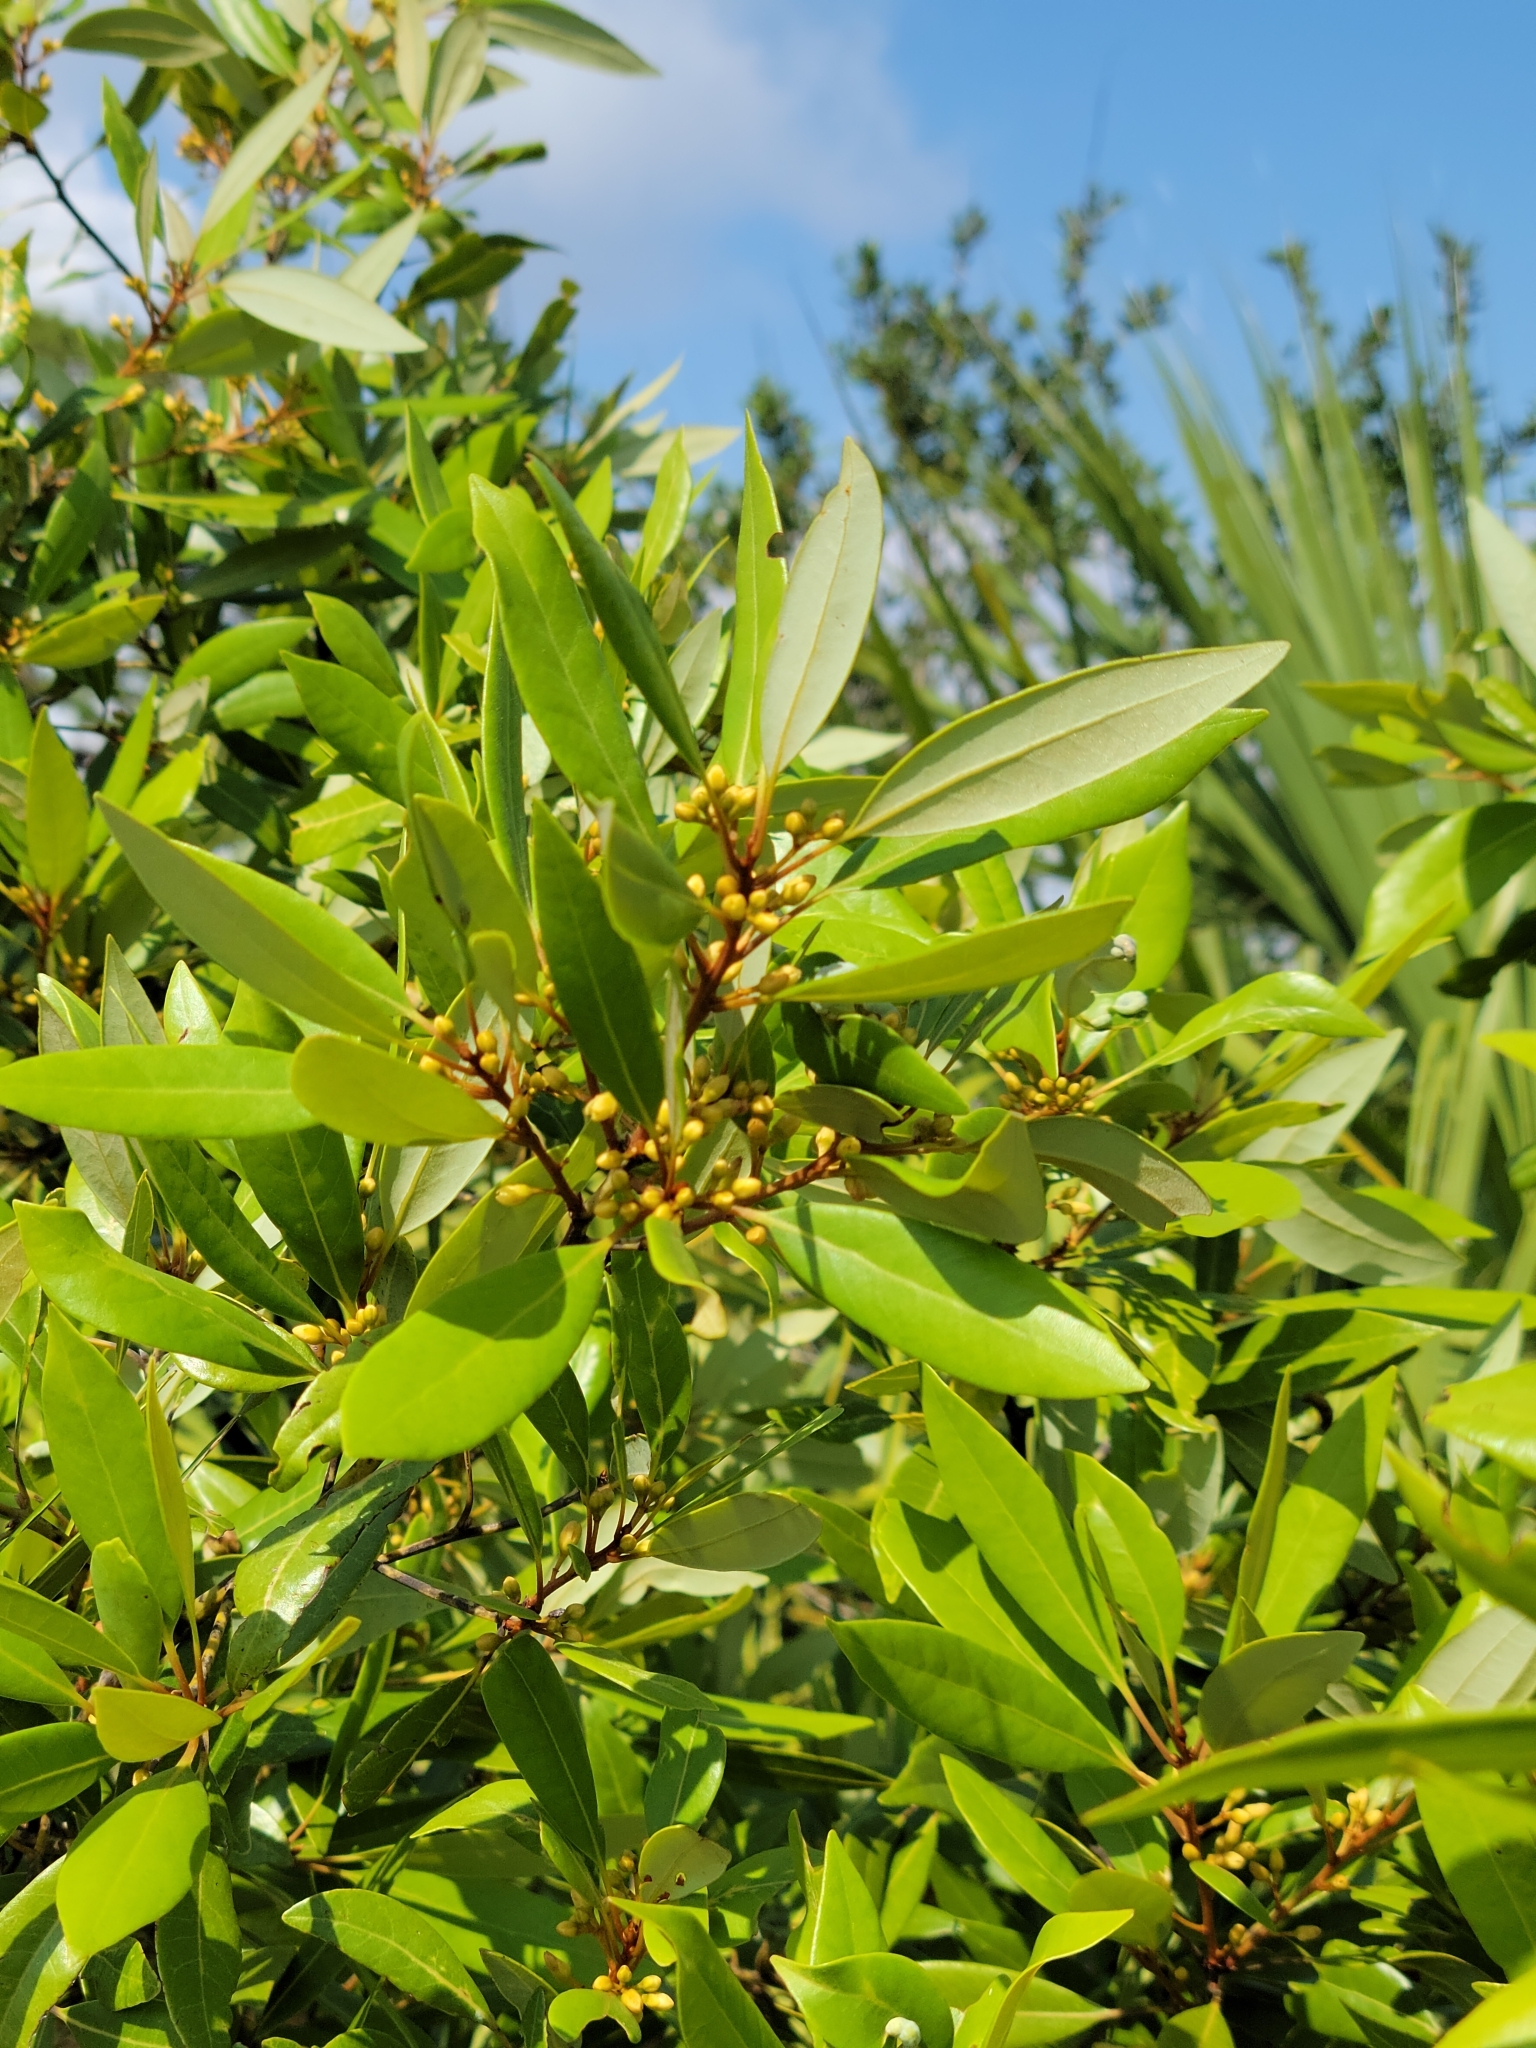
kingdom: Plantae
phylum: Tracheophyta
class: Magnoliopsida
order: Laurales
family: Lauraceae
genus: Persea
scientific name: Persea borbonia
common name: Redbay
